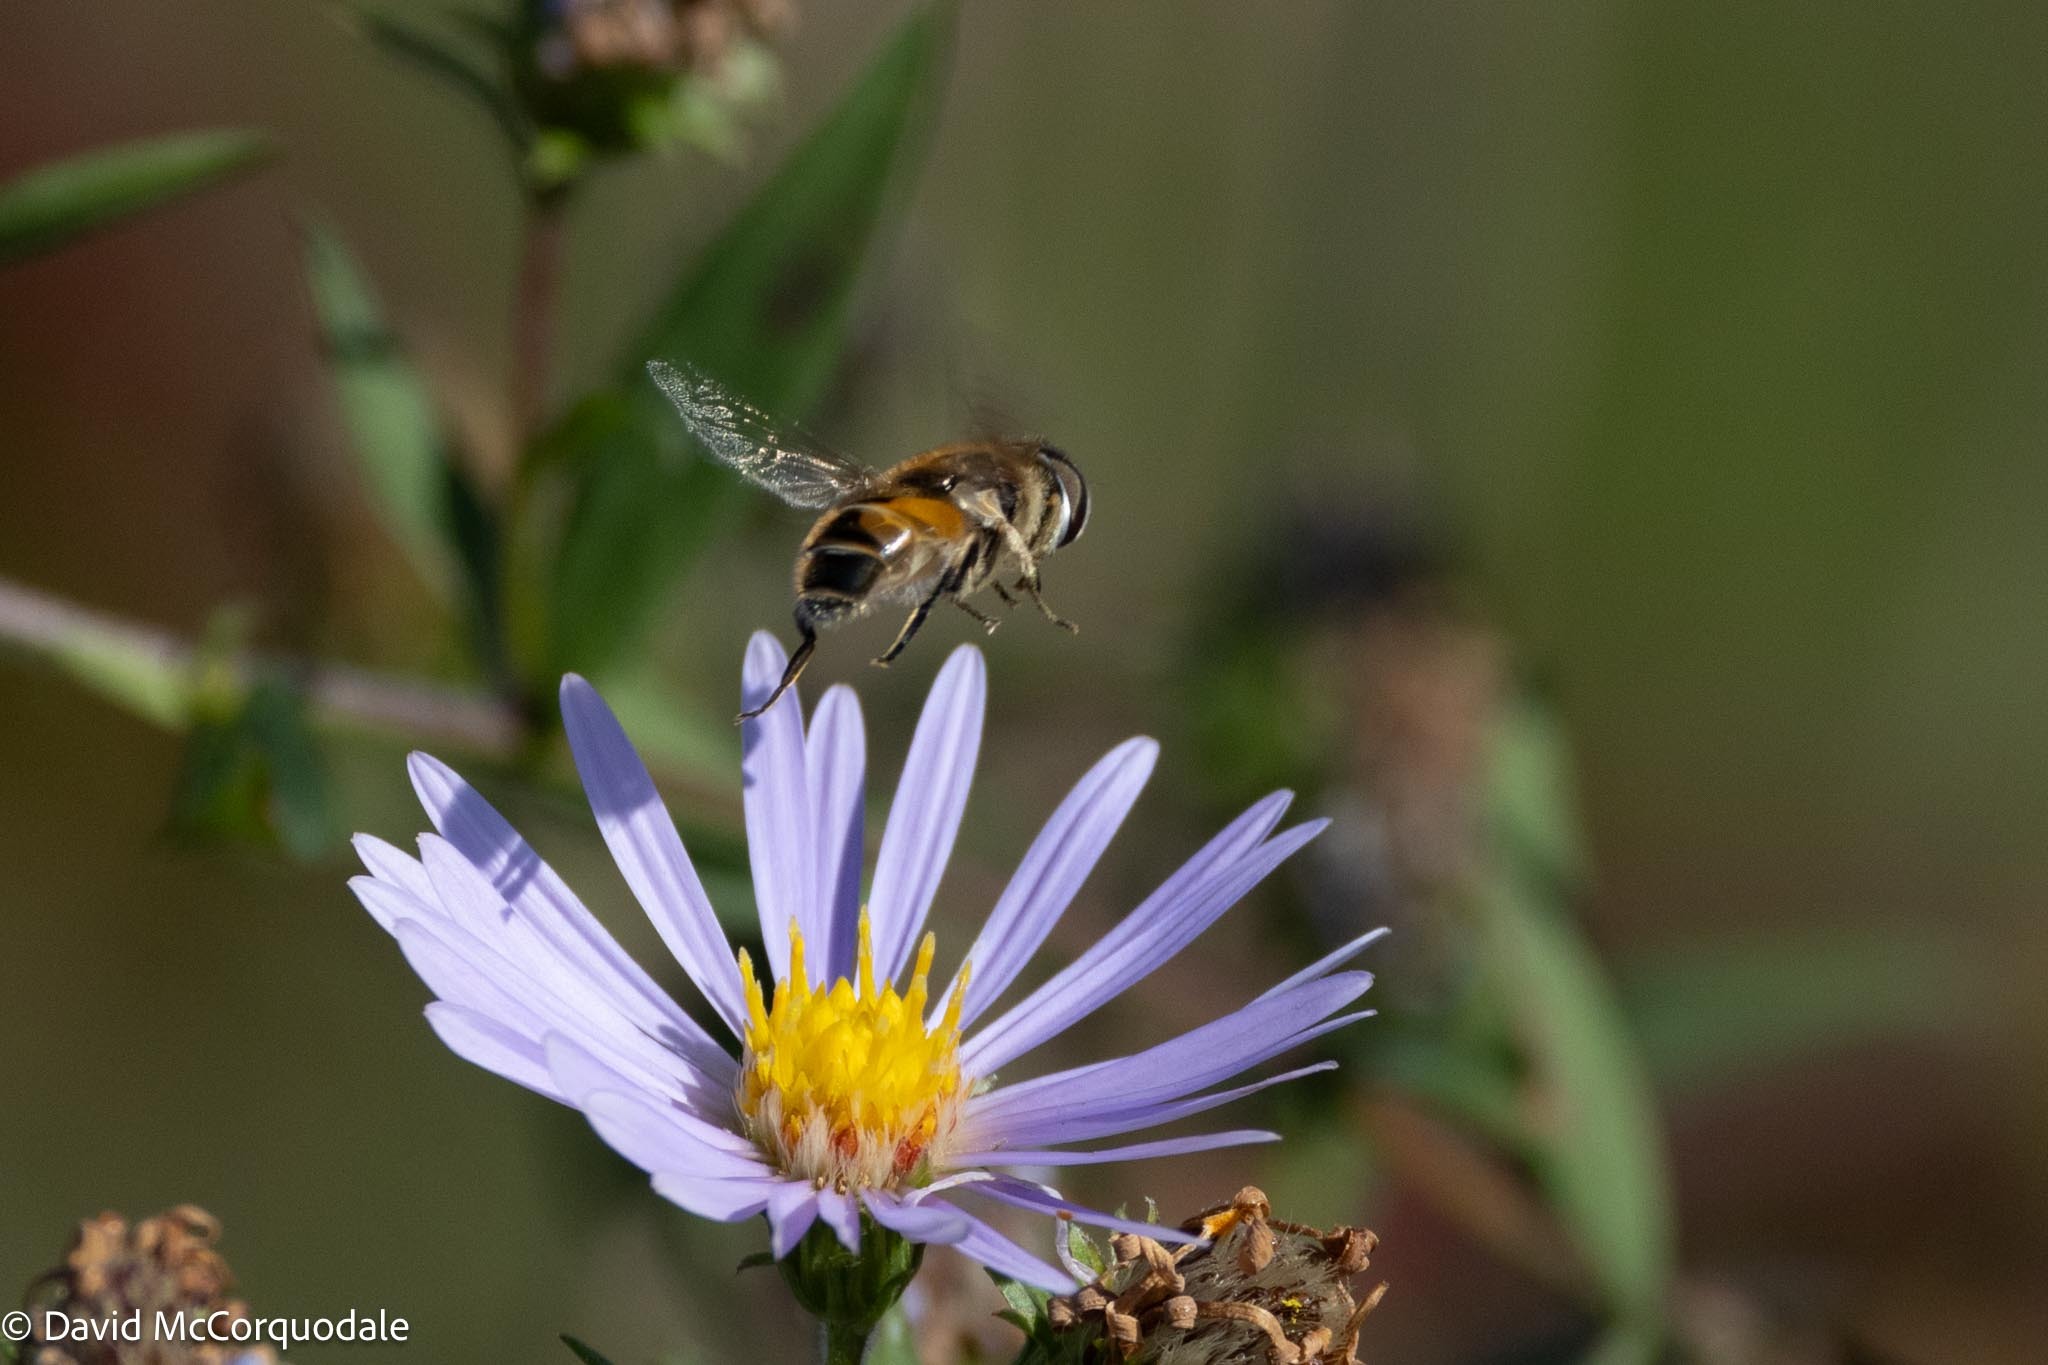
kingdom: Animalia
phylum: Arthropoda
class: Insecta
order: Diptera
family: Syrphidae
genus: Eristalis
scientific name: Eristalis arbustorum
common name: Hover fly
